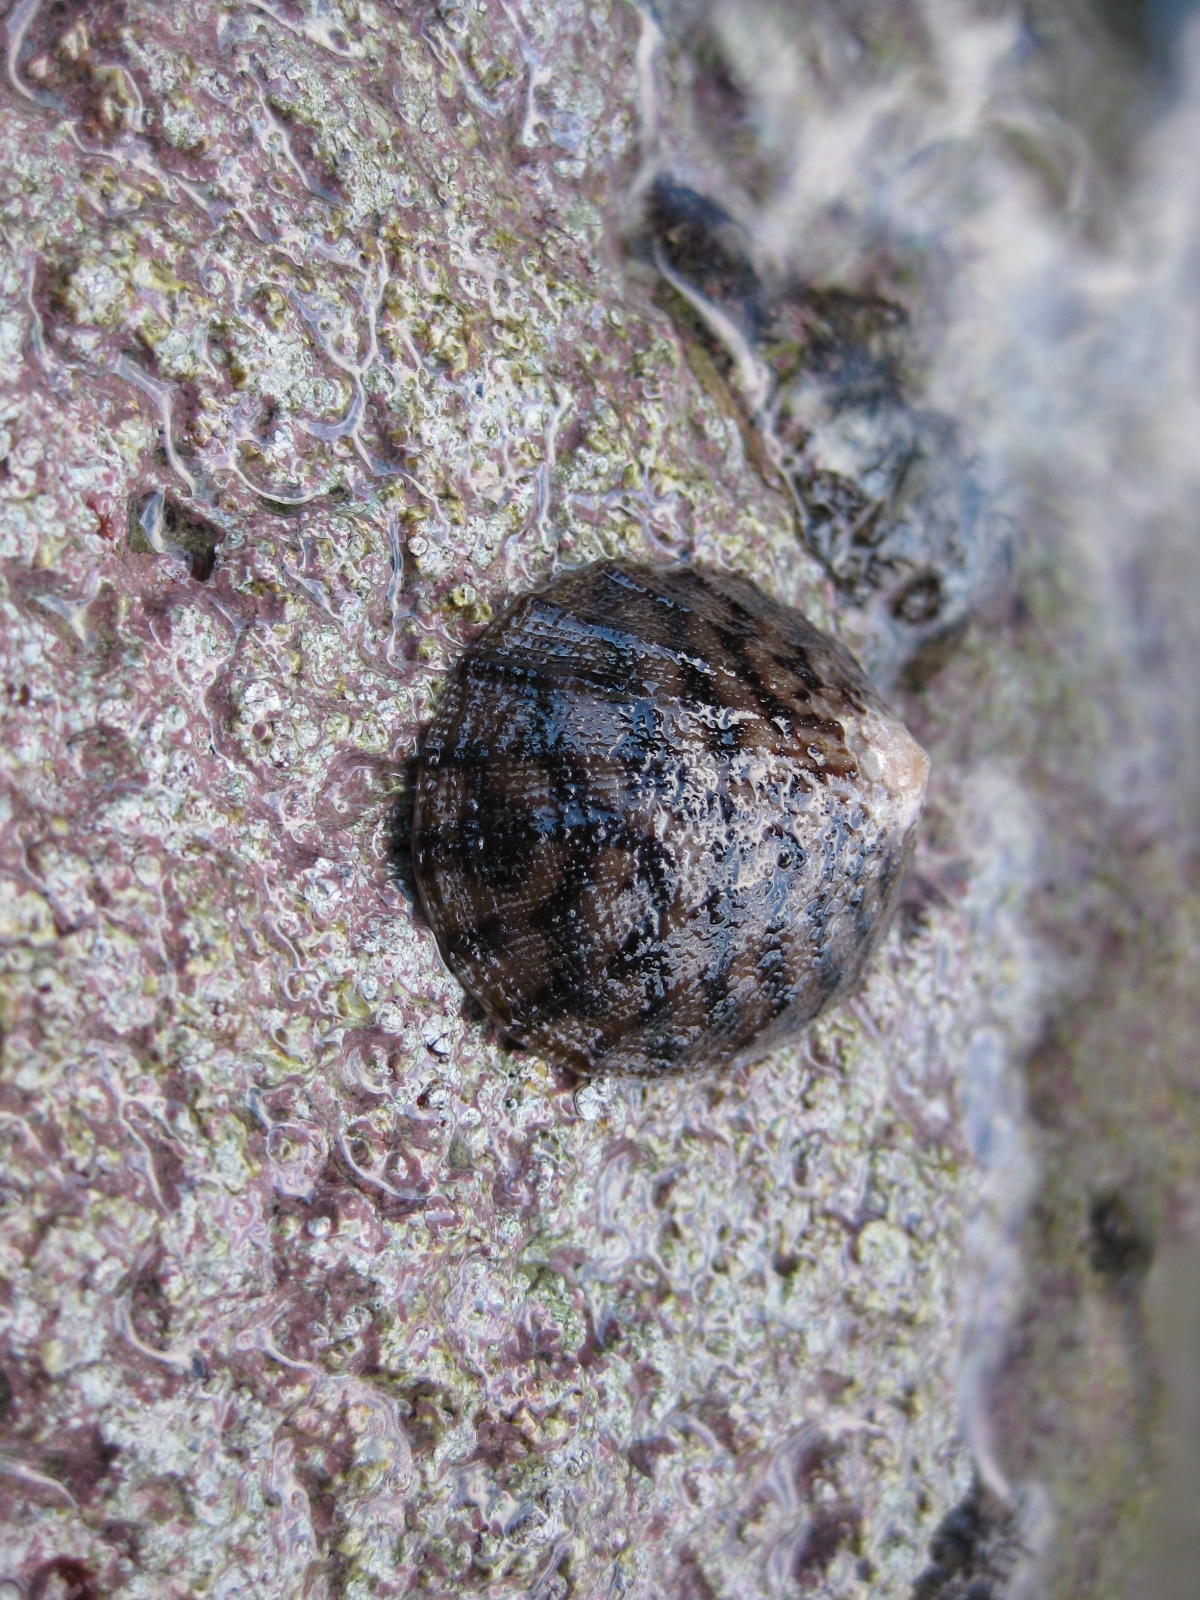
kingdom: Animalia
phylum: Mollusca
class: Gastropoda
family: Nacellidae
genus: Cellana
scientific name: Cellana radians
